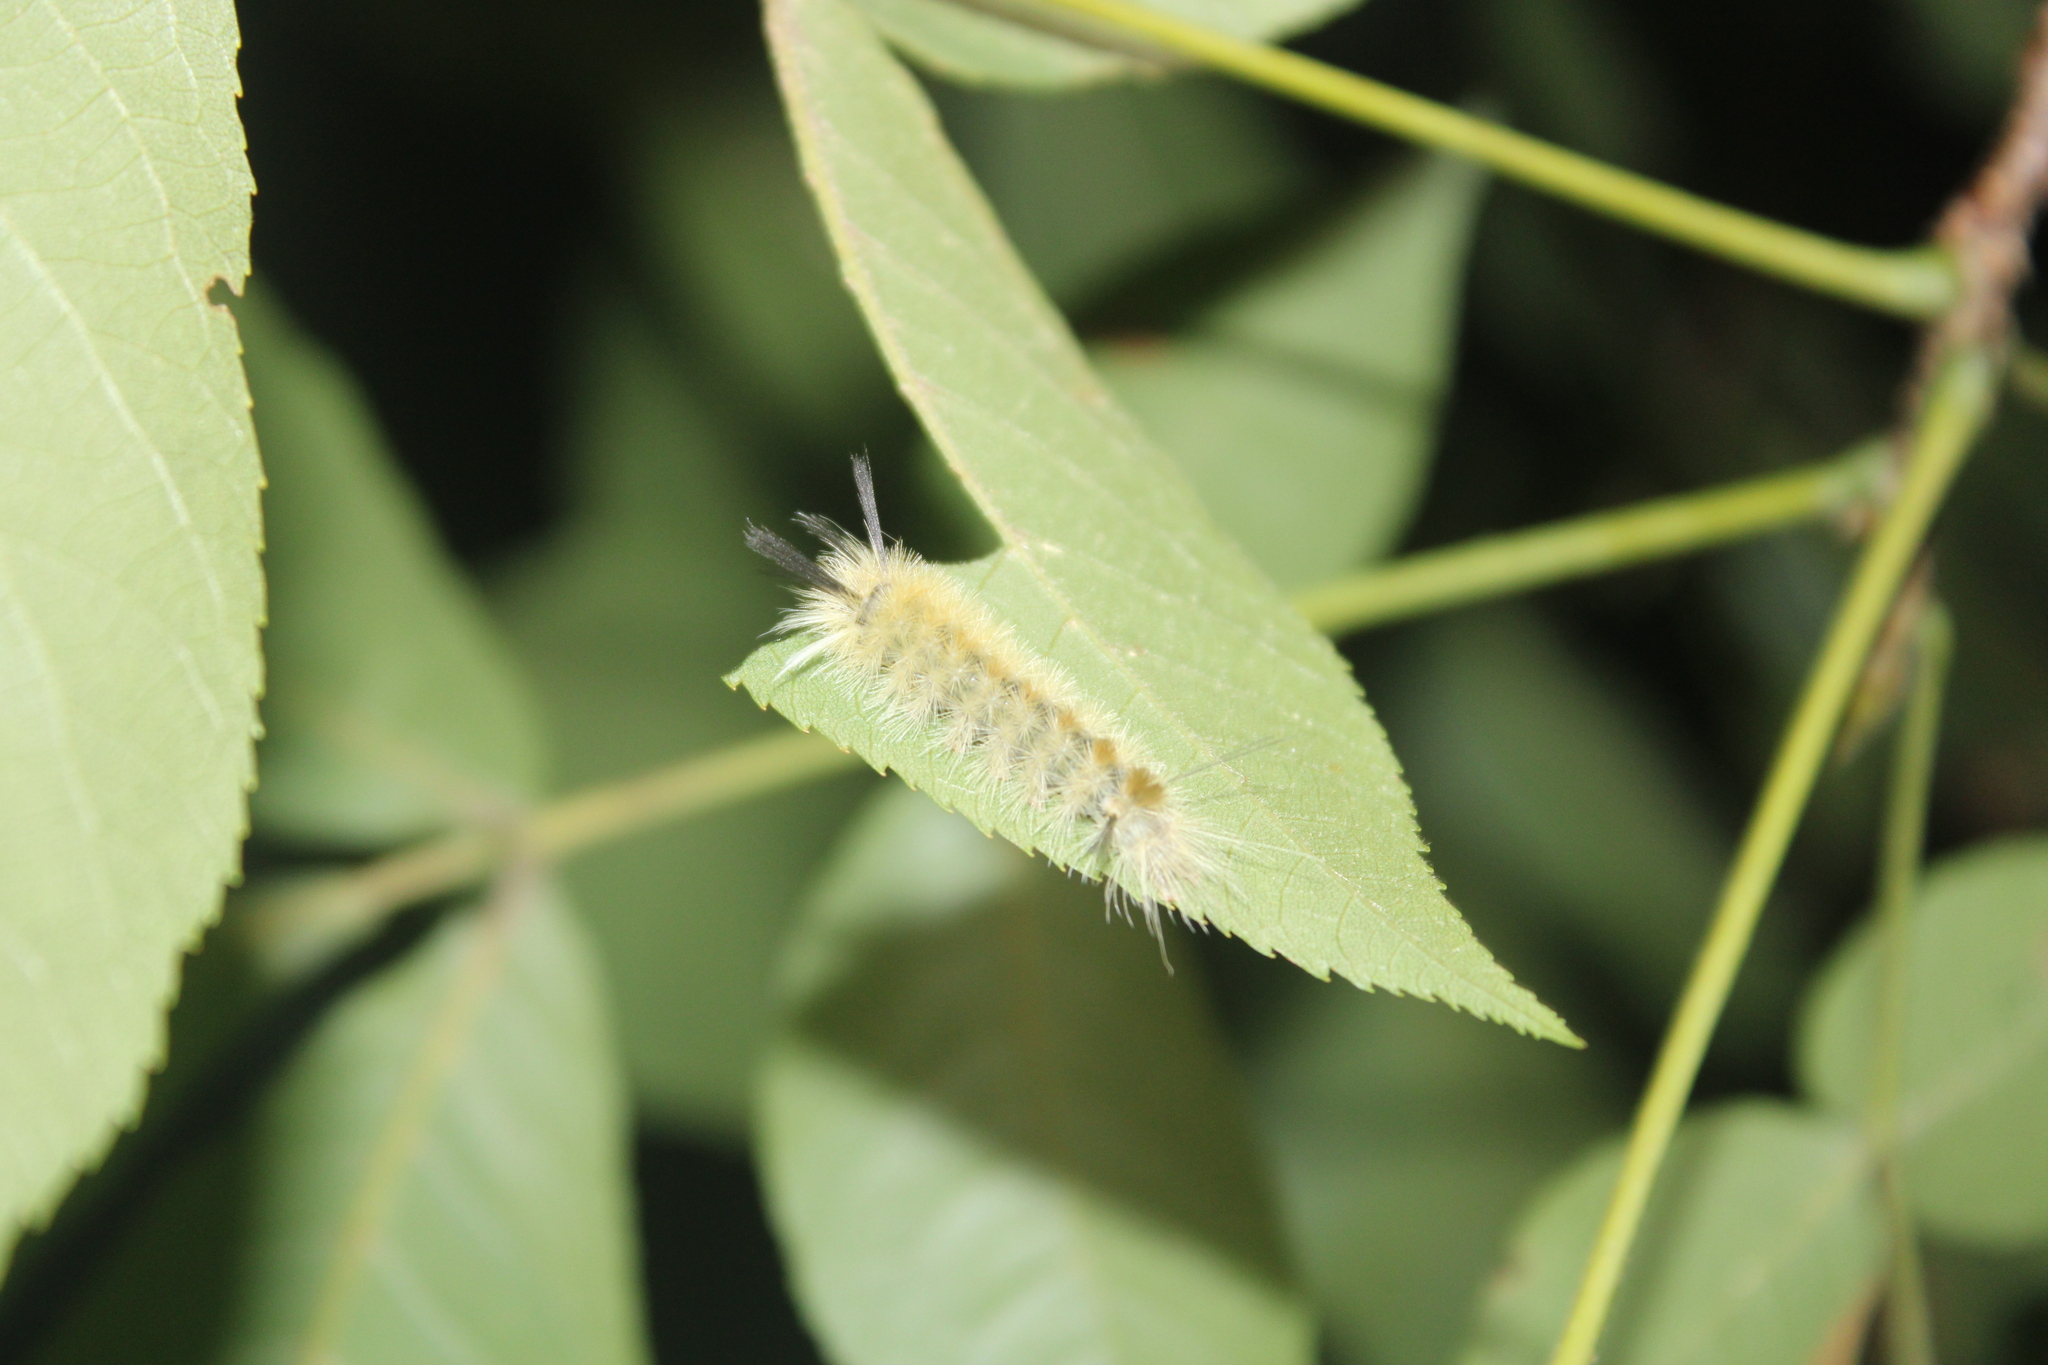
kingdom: Animalia
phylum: Arthropoda
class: Insecta
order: Lepidoptera
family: Erebidae
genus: Halysidota
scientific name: Halysidota tessellaris
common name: Banded tussock moth
